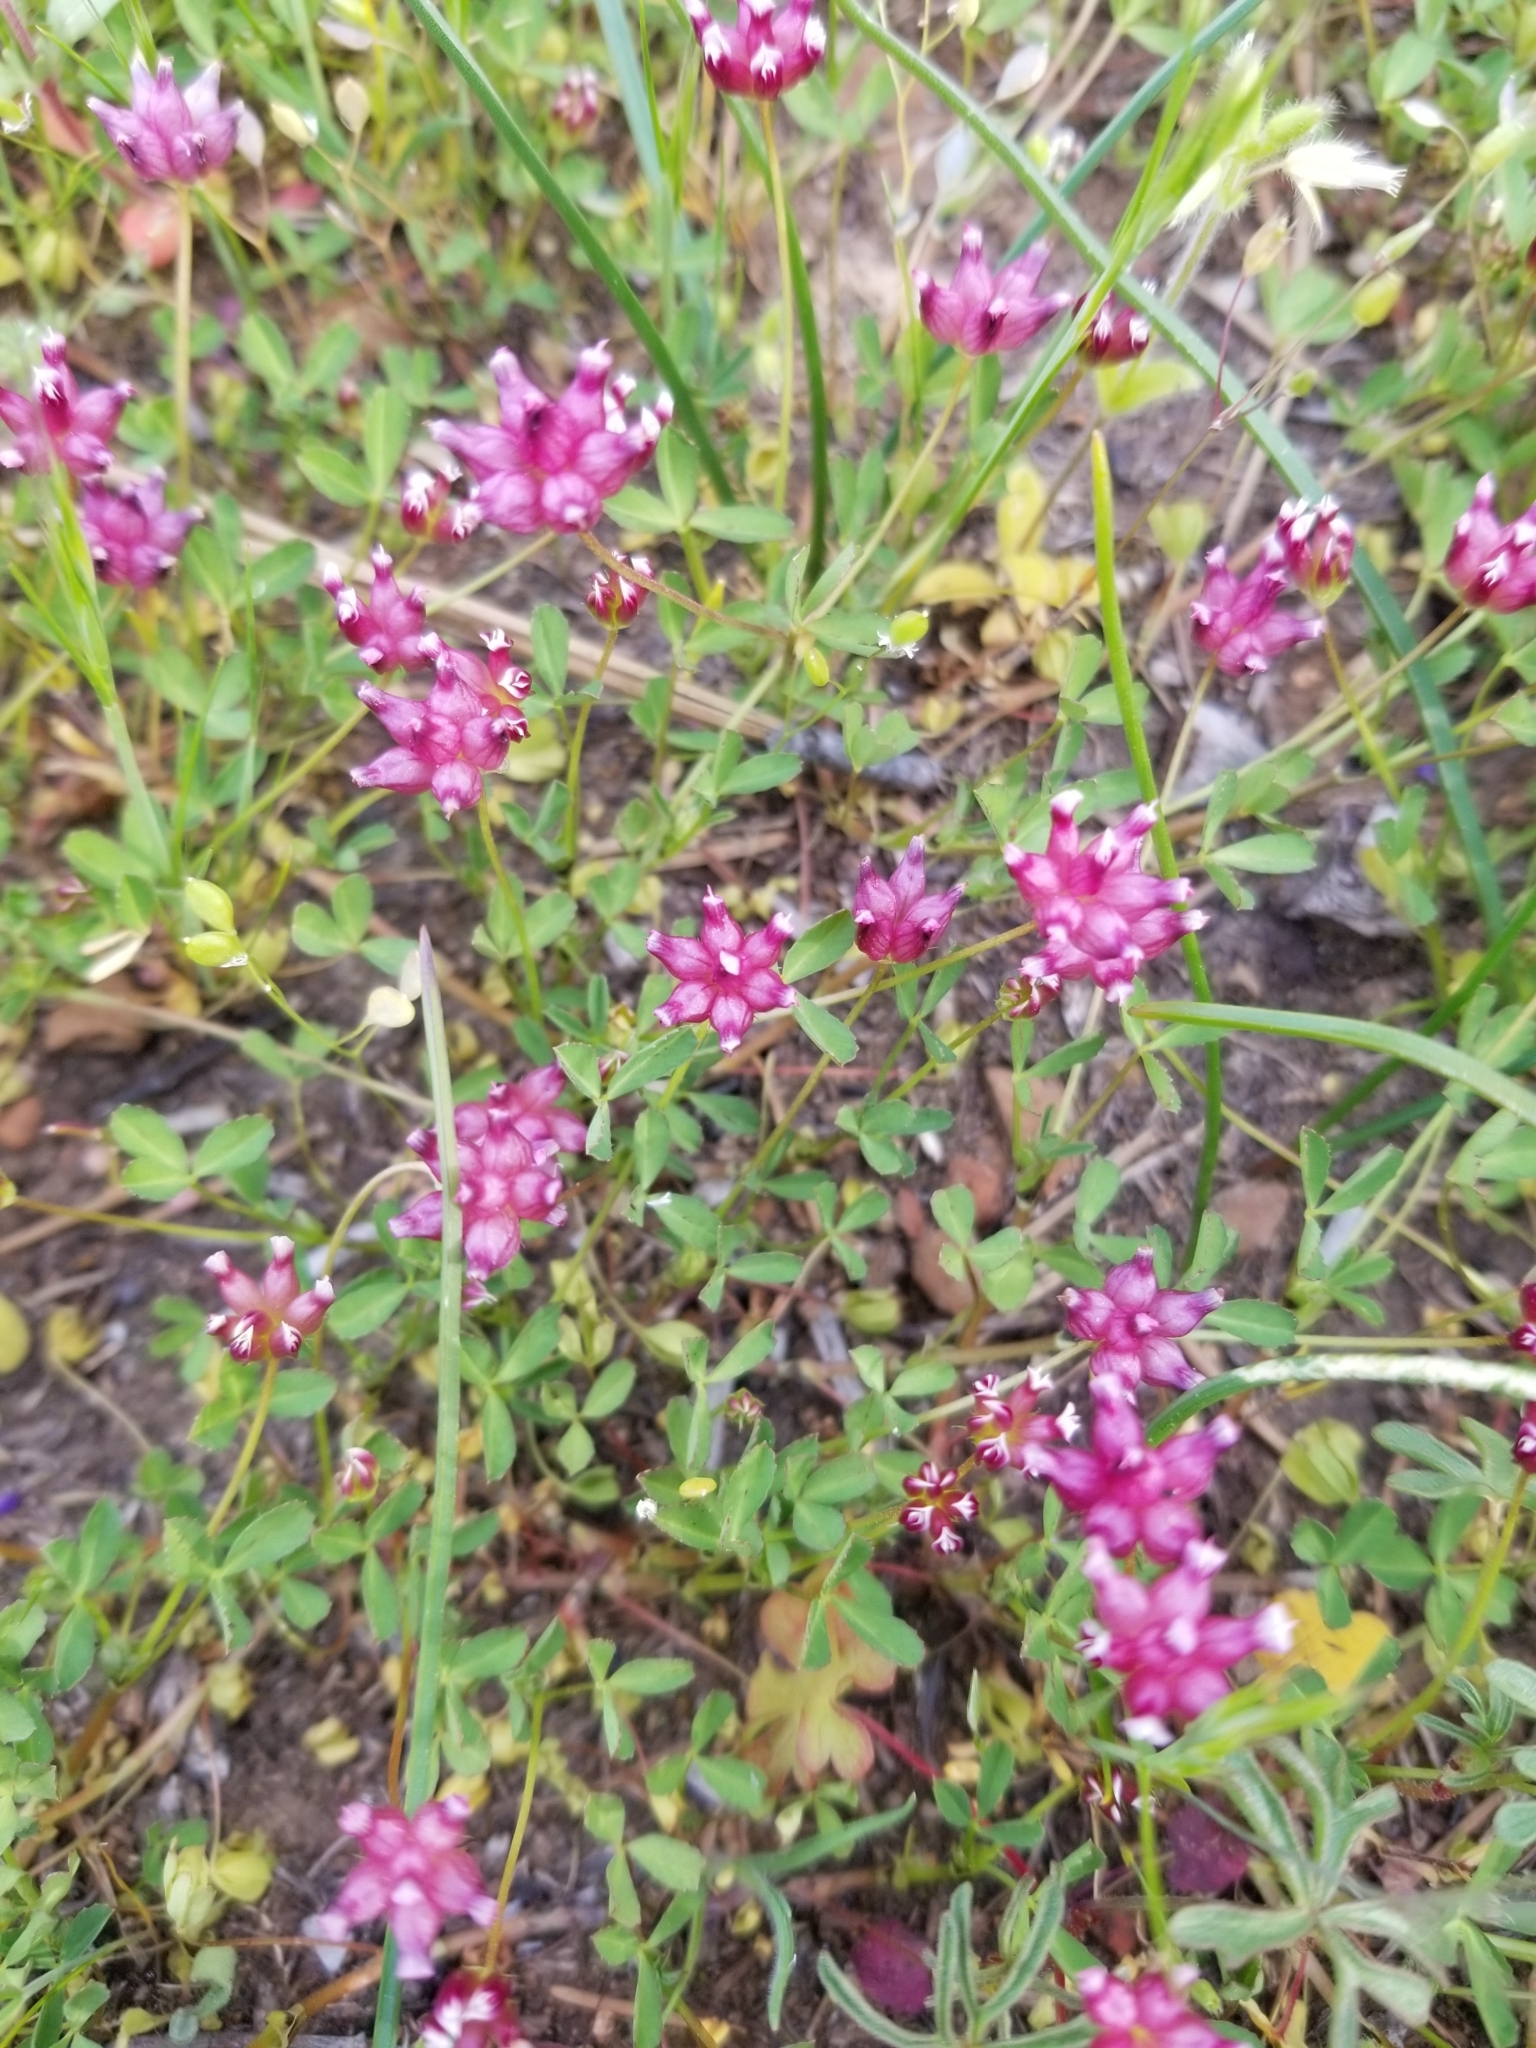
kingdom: Plantae
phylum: Tracheophyta
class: Magnoliopsida
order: Fabales
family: Fabaceae
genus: Trifolium
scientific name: Trifolium depauperatum
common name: Poverty clover
